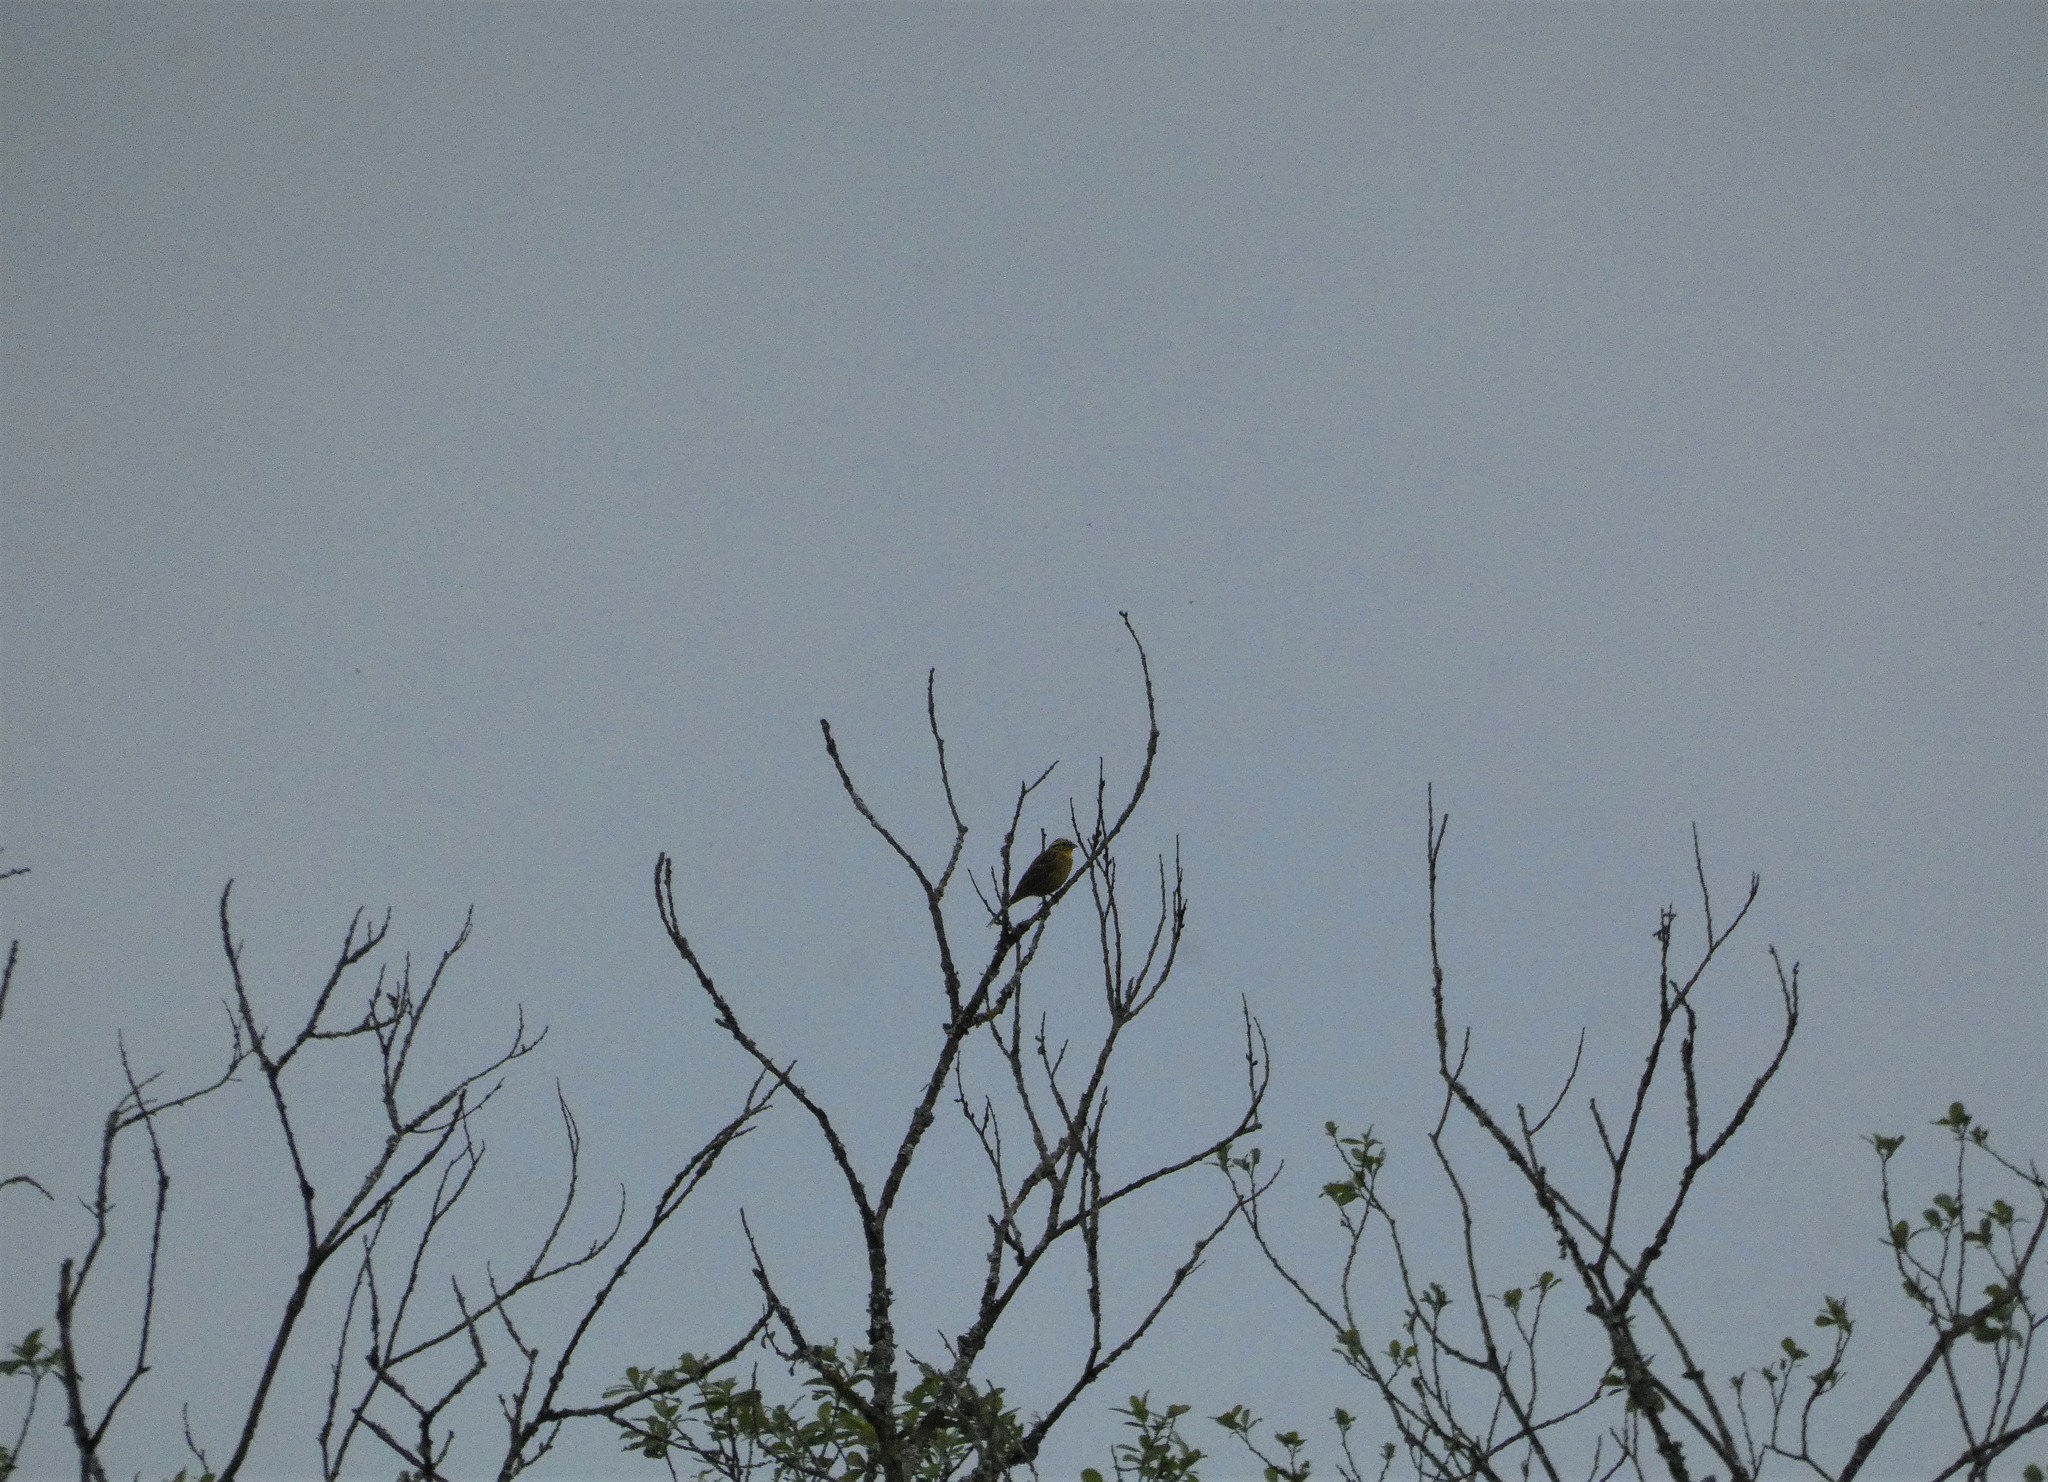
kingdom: Animalia
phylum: Chordata
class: Aves
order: Passeriformes
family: Emberizidae
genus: Emberiza
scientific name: Emberiza citrinella
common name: Yellowhammer
